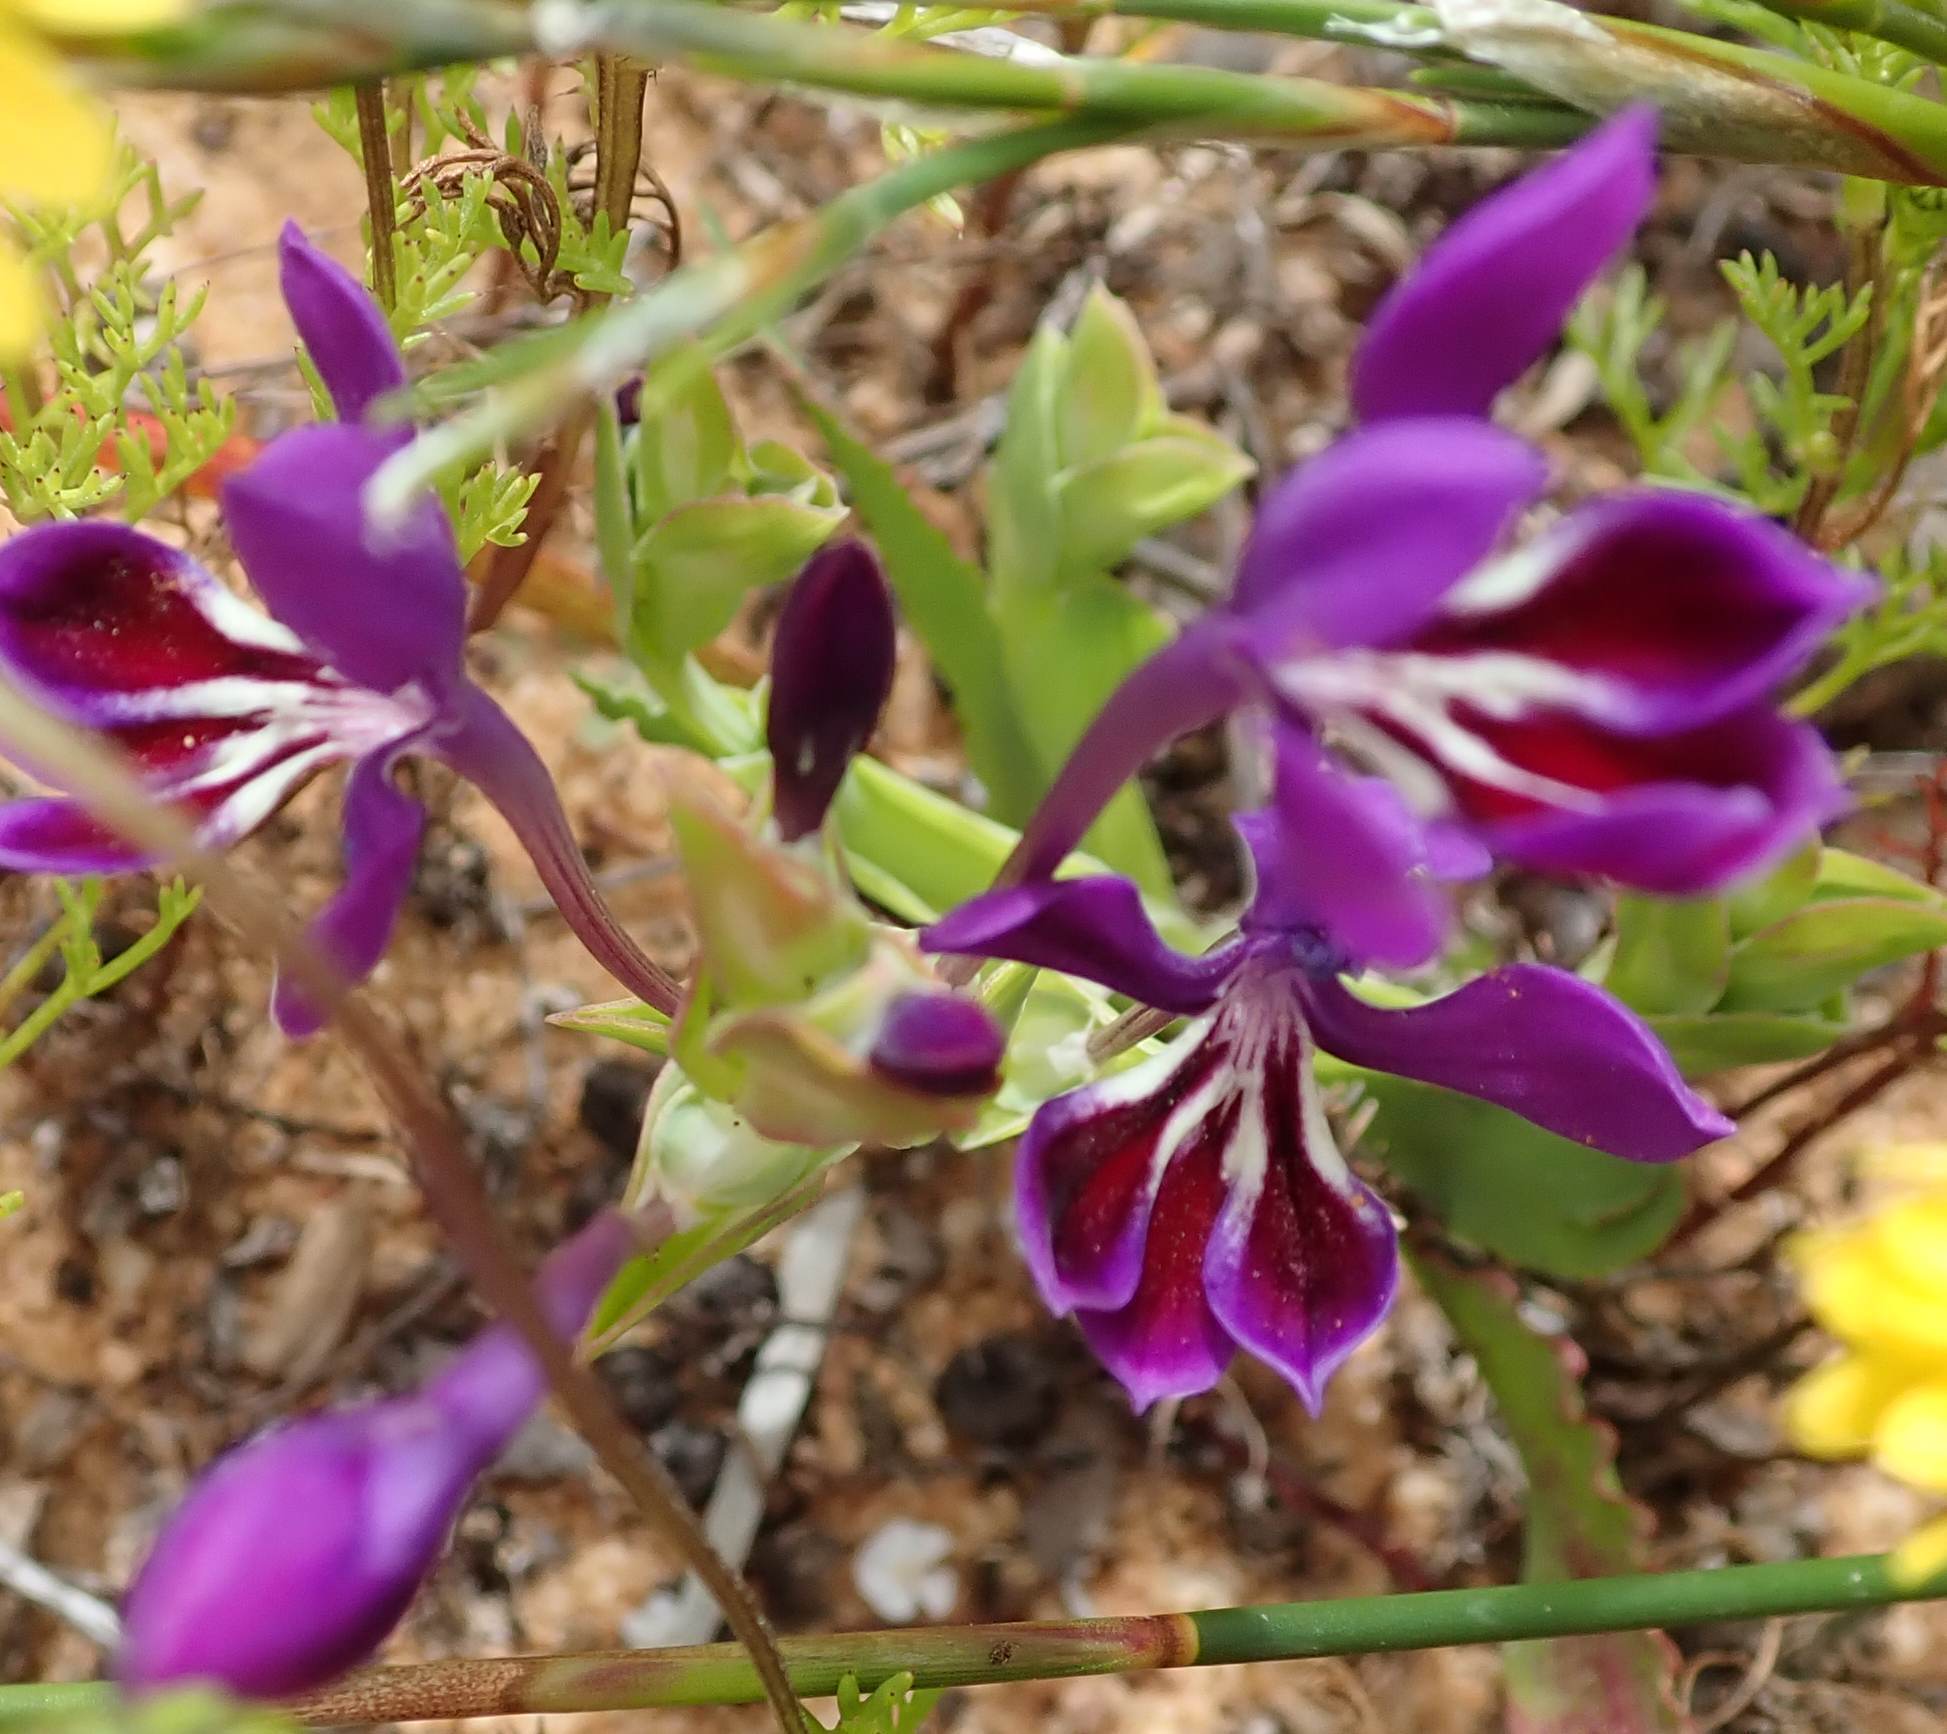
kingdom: Plantae
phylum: Tracheophyta
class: Liliopsida
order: Asparagales
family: Iridaceae
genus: Lapeirousia
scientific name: Lapeirousia jacquinii
